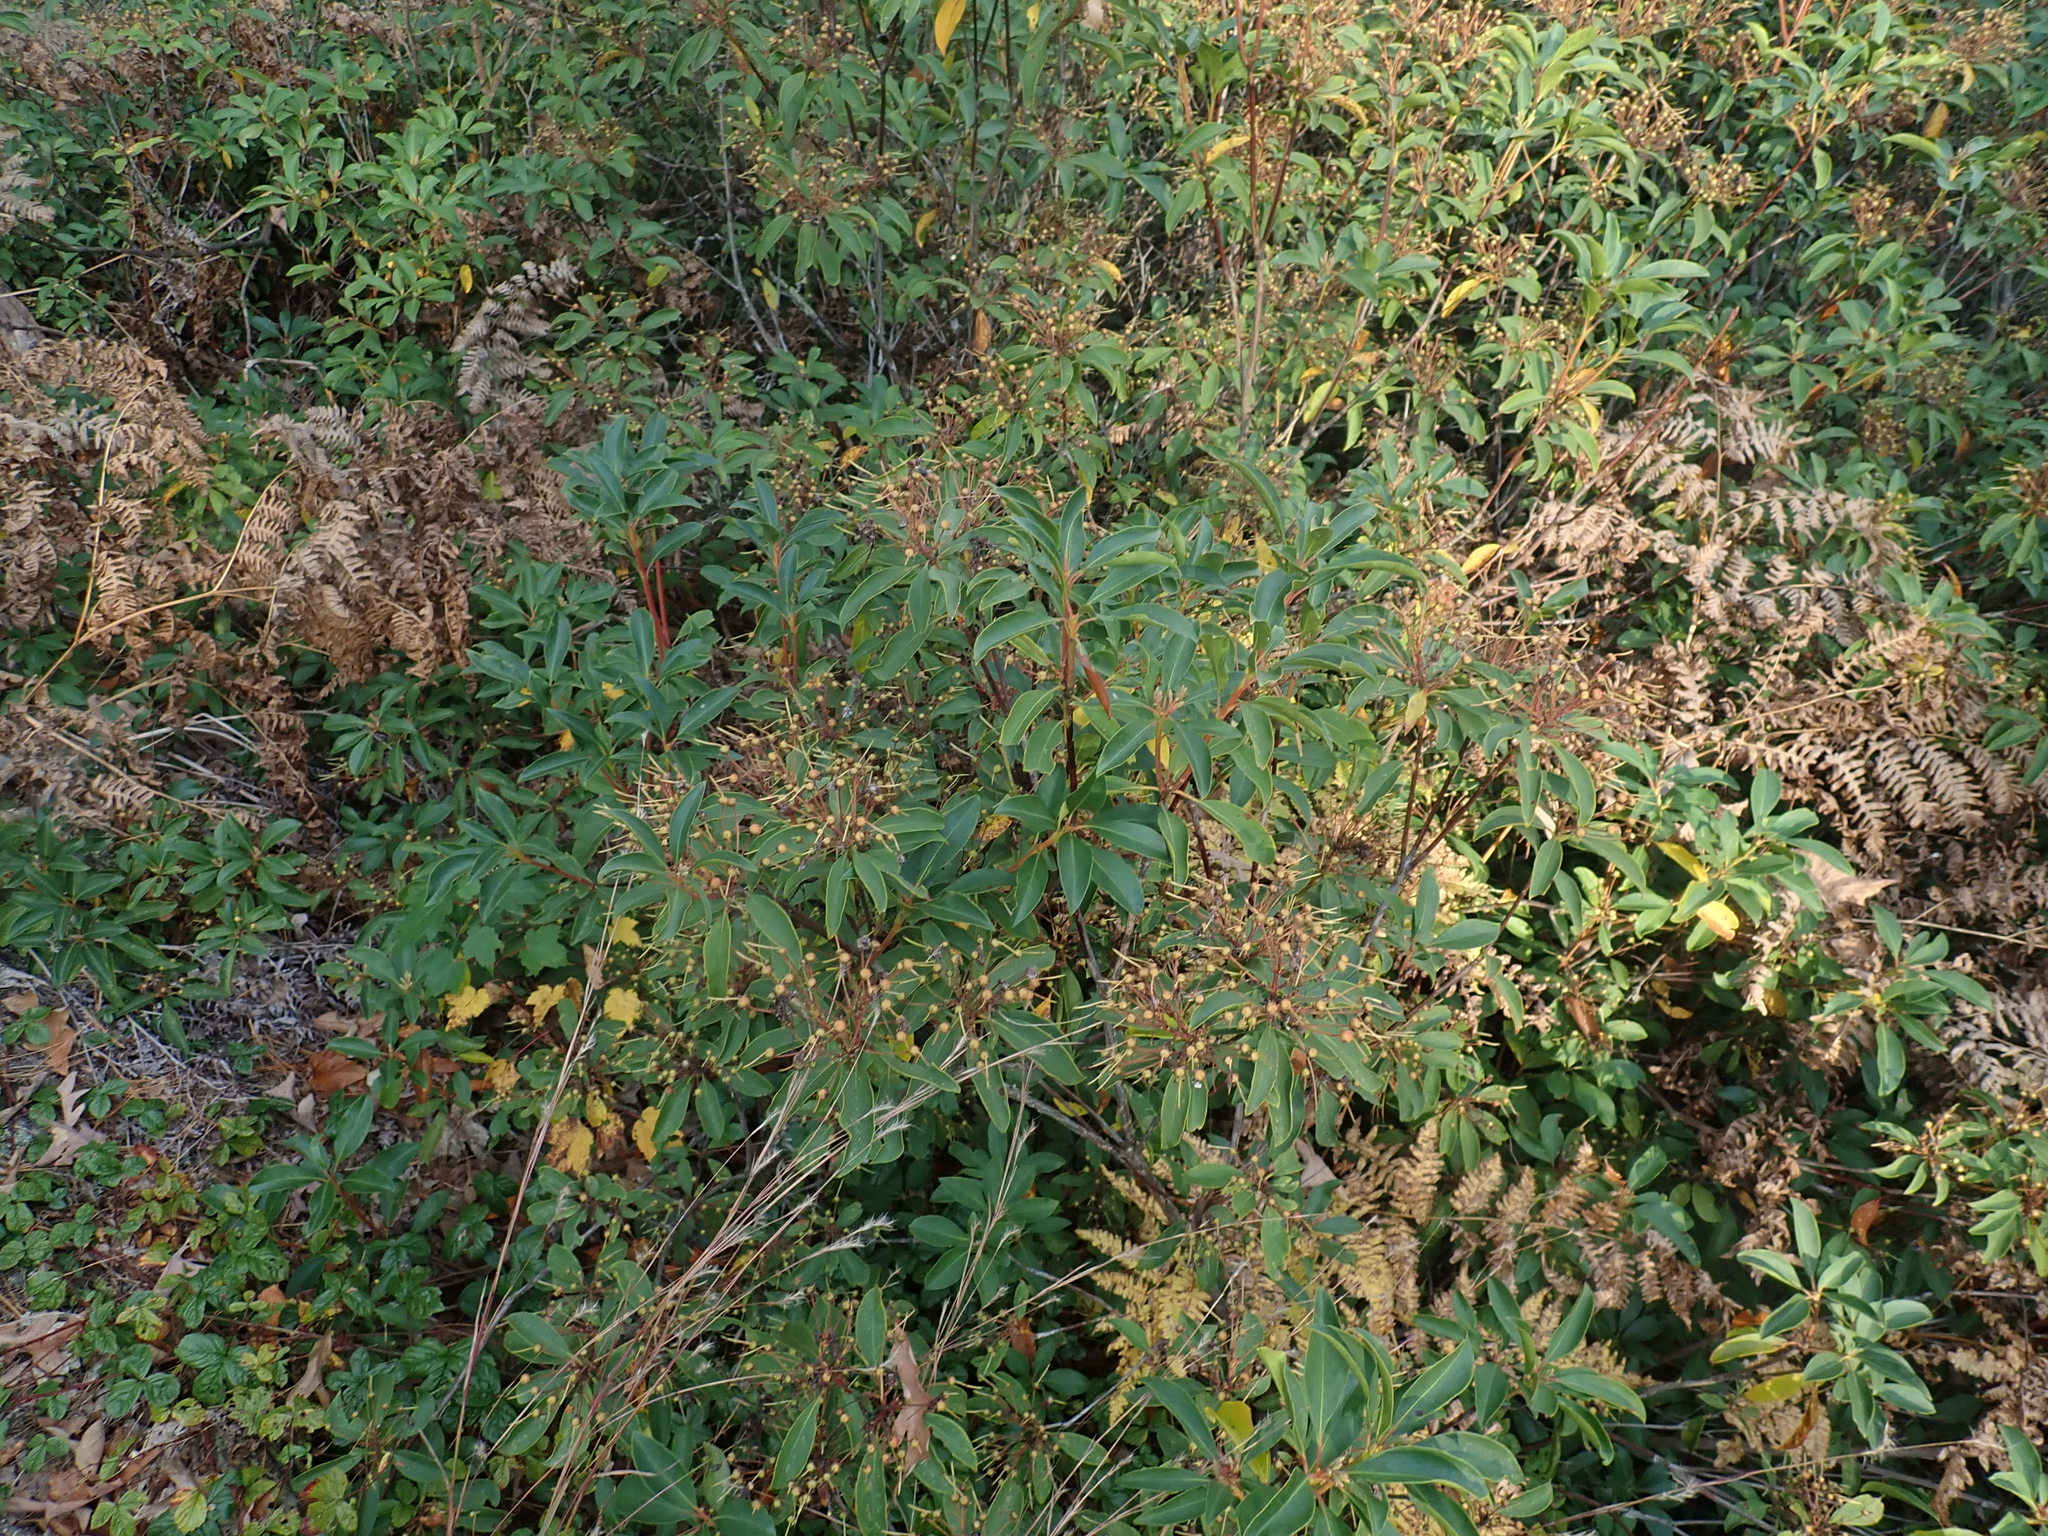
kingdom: Plantae
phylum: Tracheophyta
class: Magnoliopsida
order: Ericales
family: Ericaceae
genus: Kalmia
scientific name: Kalmia latifolia
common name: Mountain-laurel
